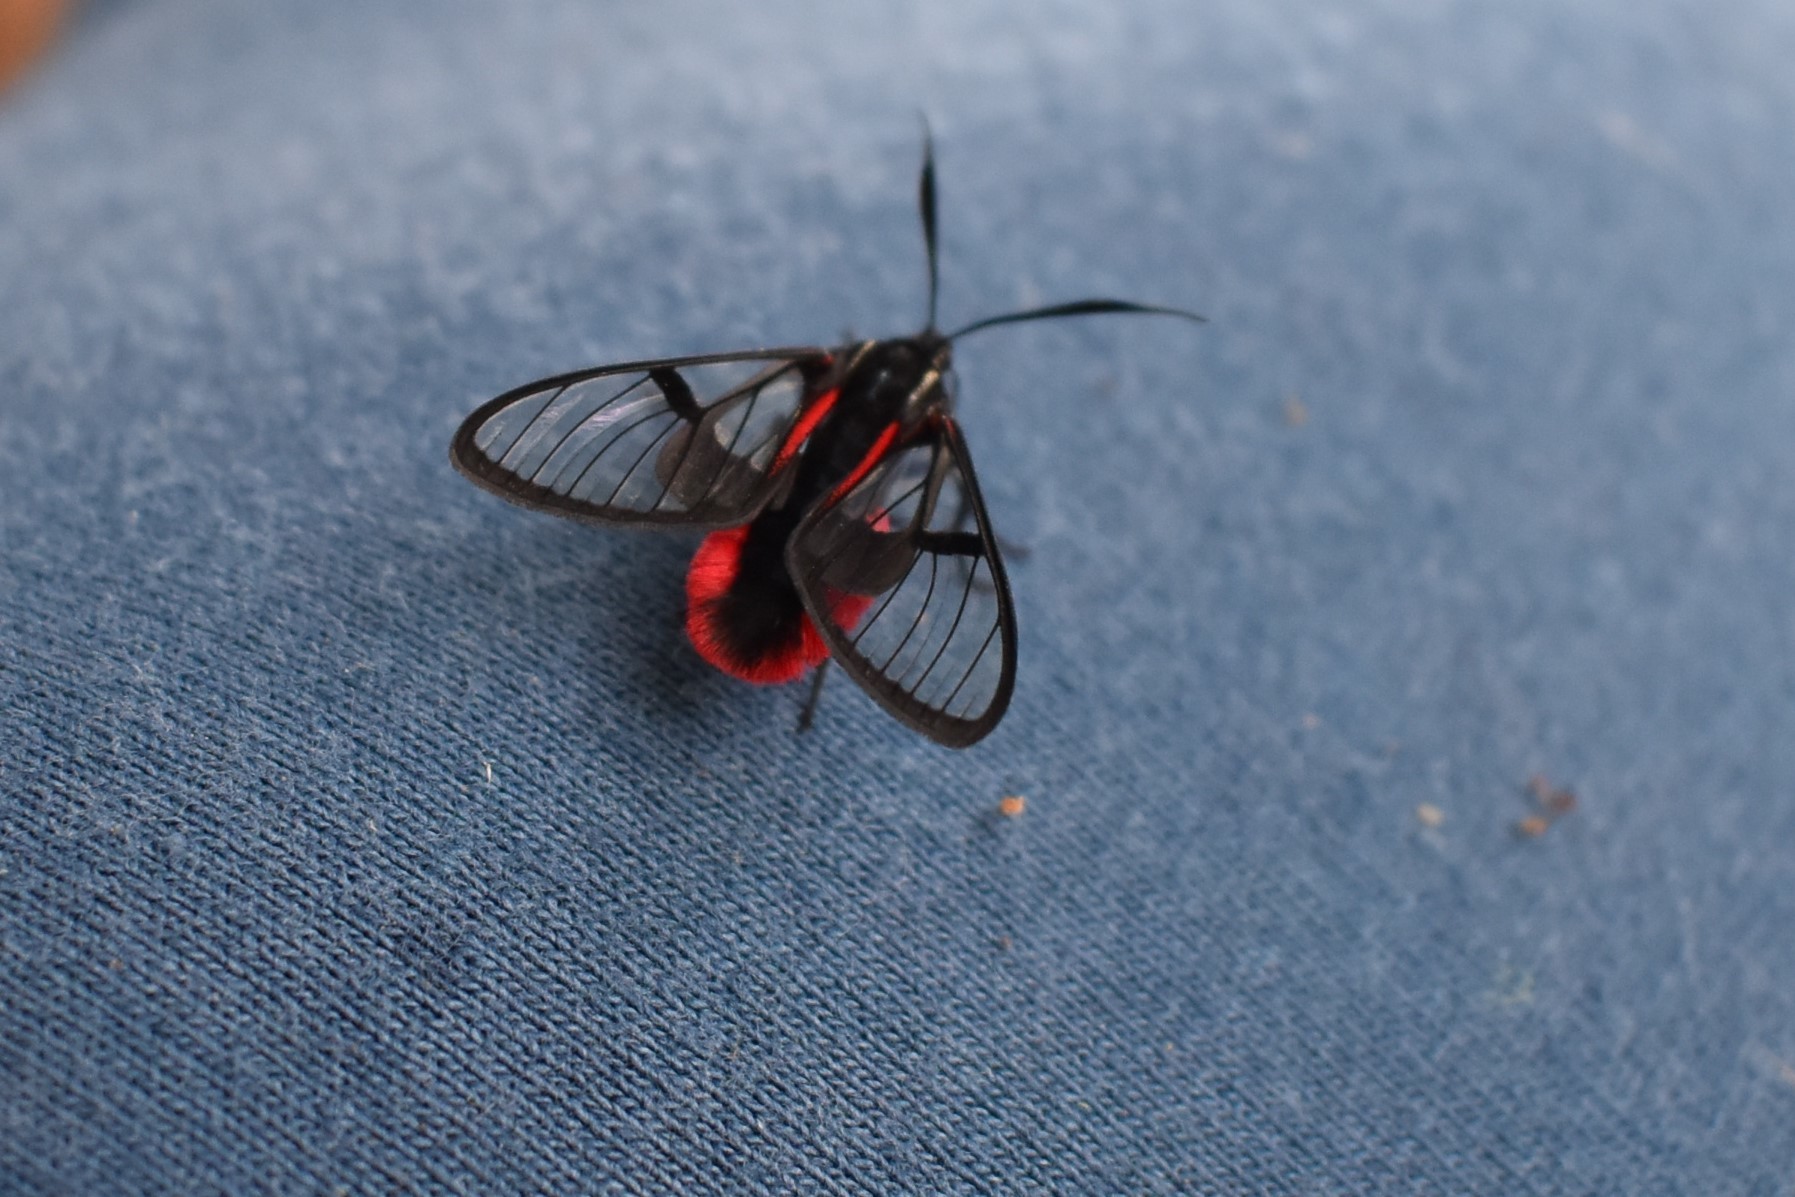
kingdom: Animalia
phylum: Arthropoda
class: Insecta
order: Lepidoptera
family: Erebidae
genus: Dinia
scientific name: Dinia mena
